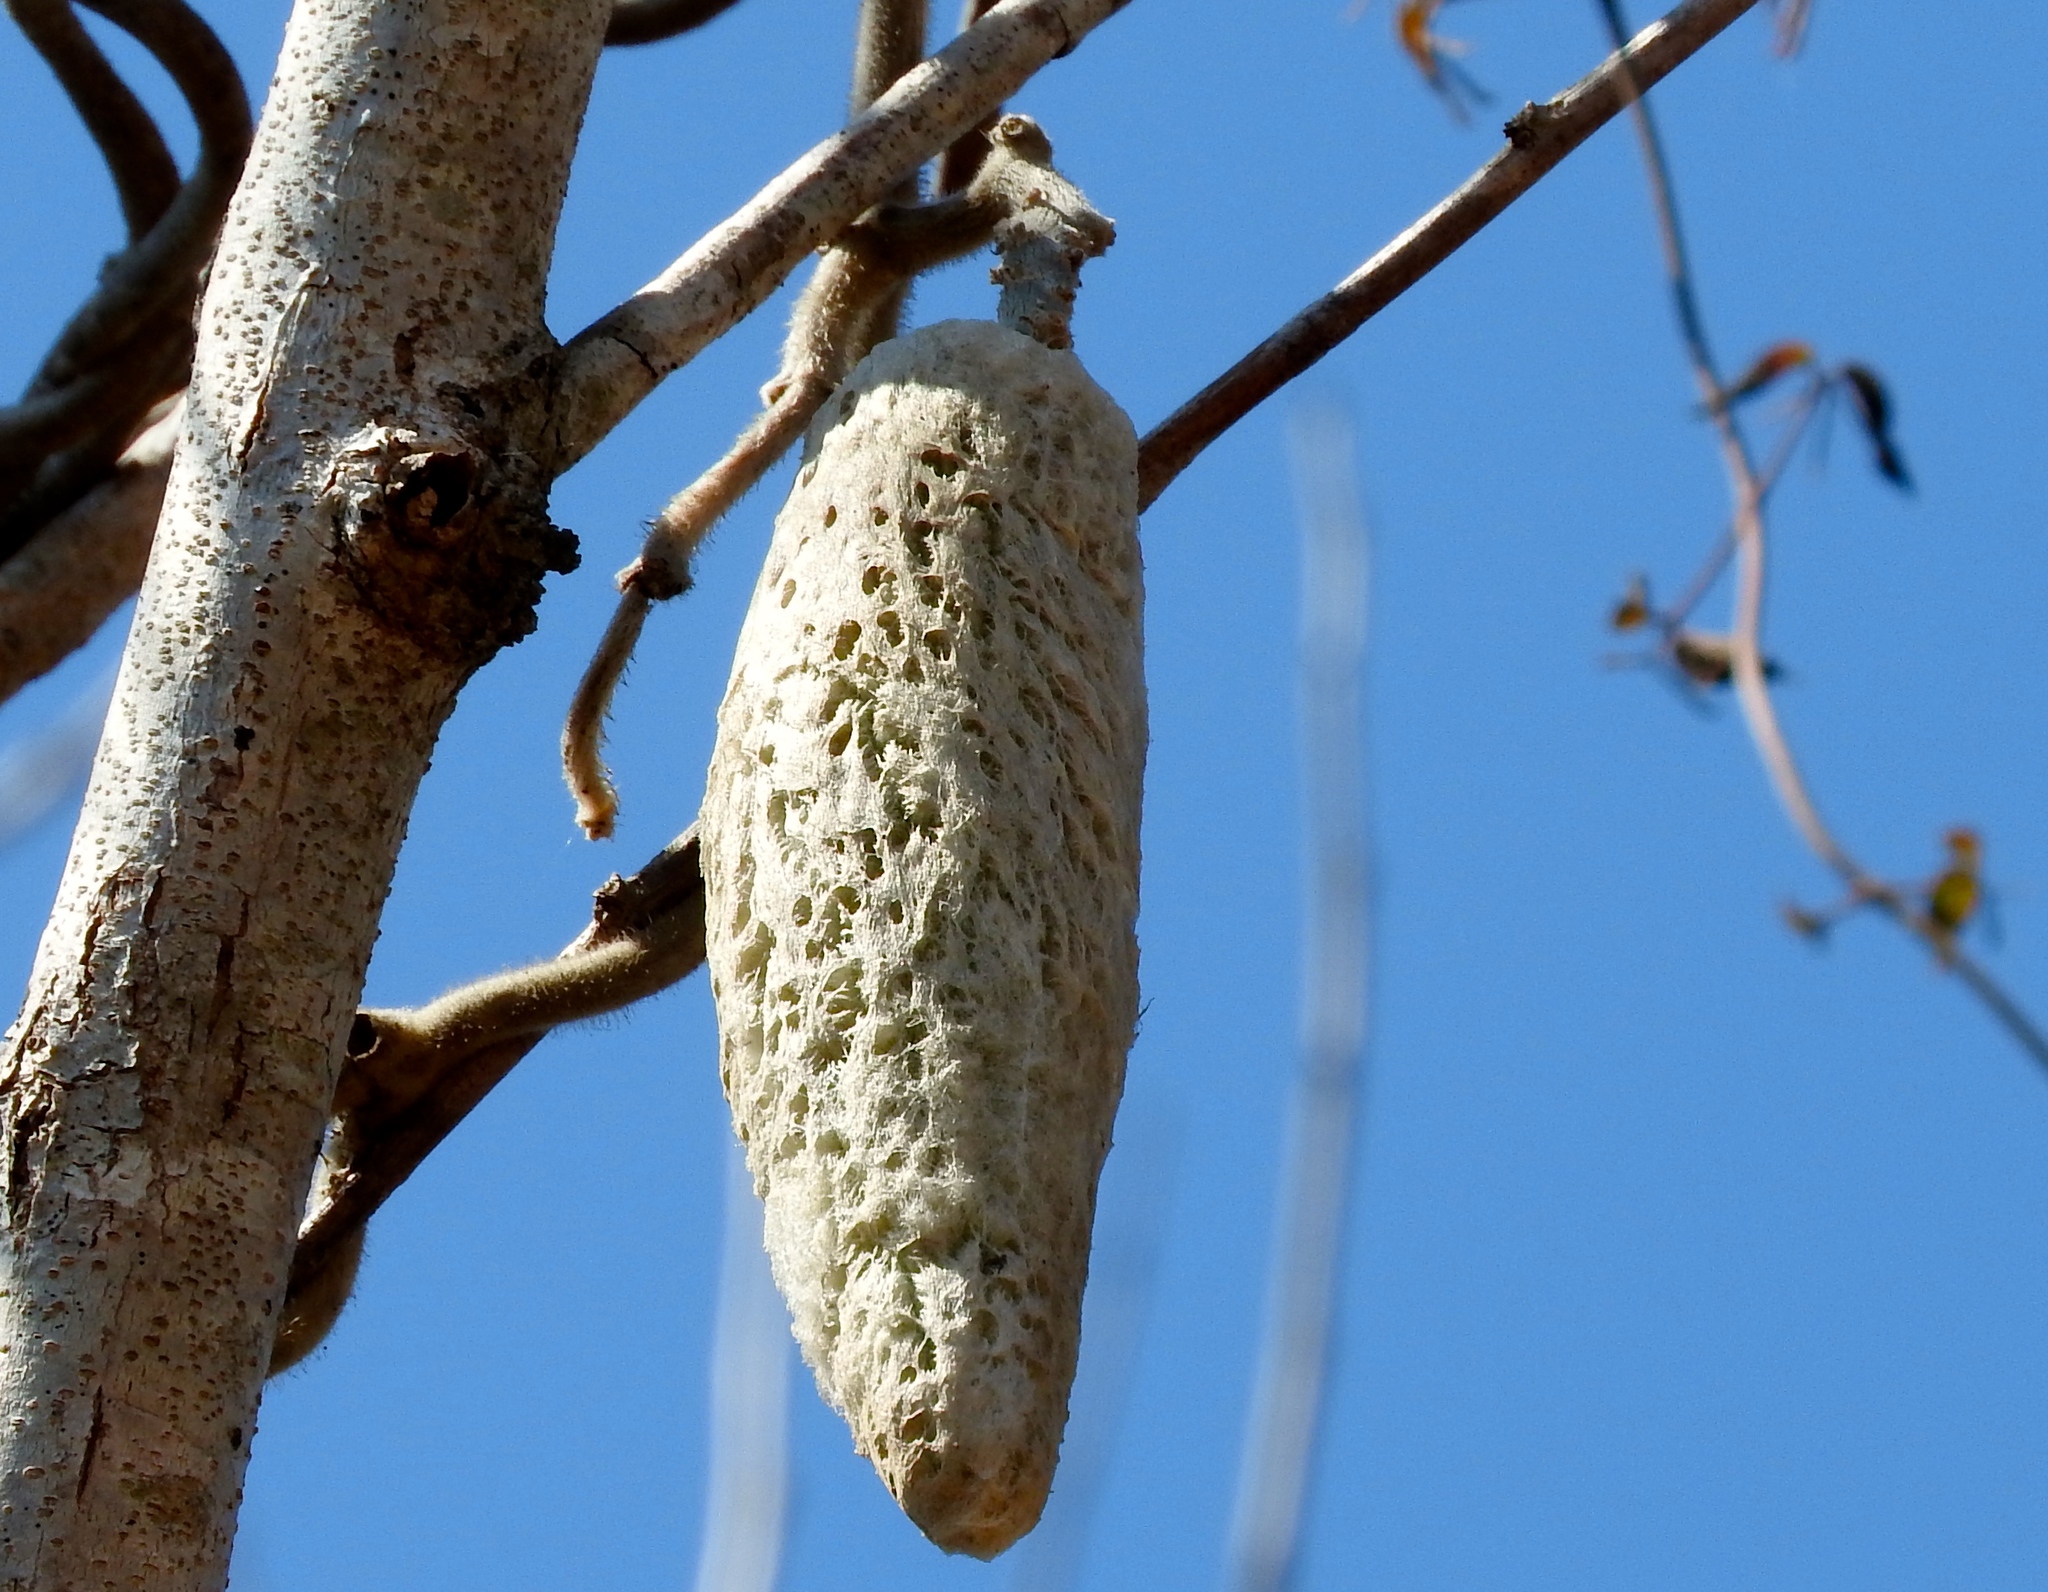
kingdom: Plantae
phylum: Tracheophyta
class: Magnoliopsida
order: Gentianales
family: Apocynaceae
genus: Ruehssia
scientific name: Ruehssia lanata
